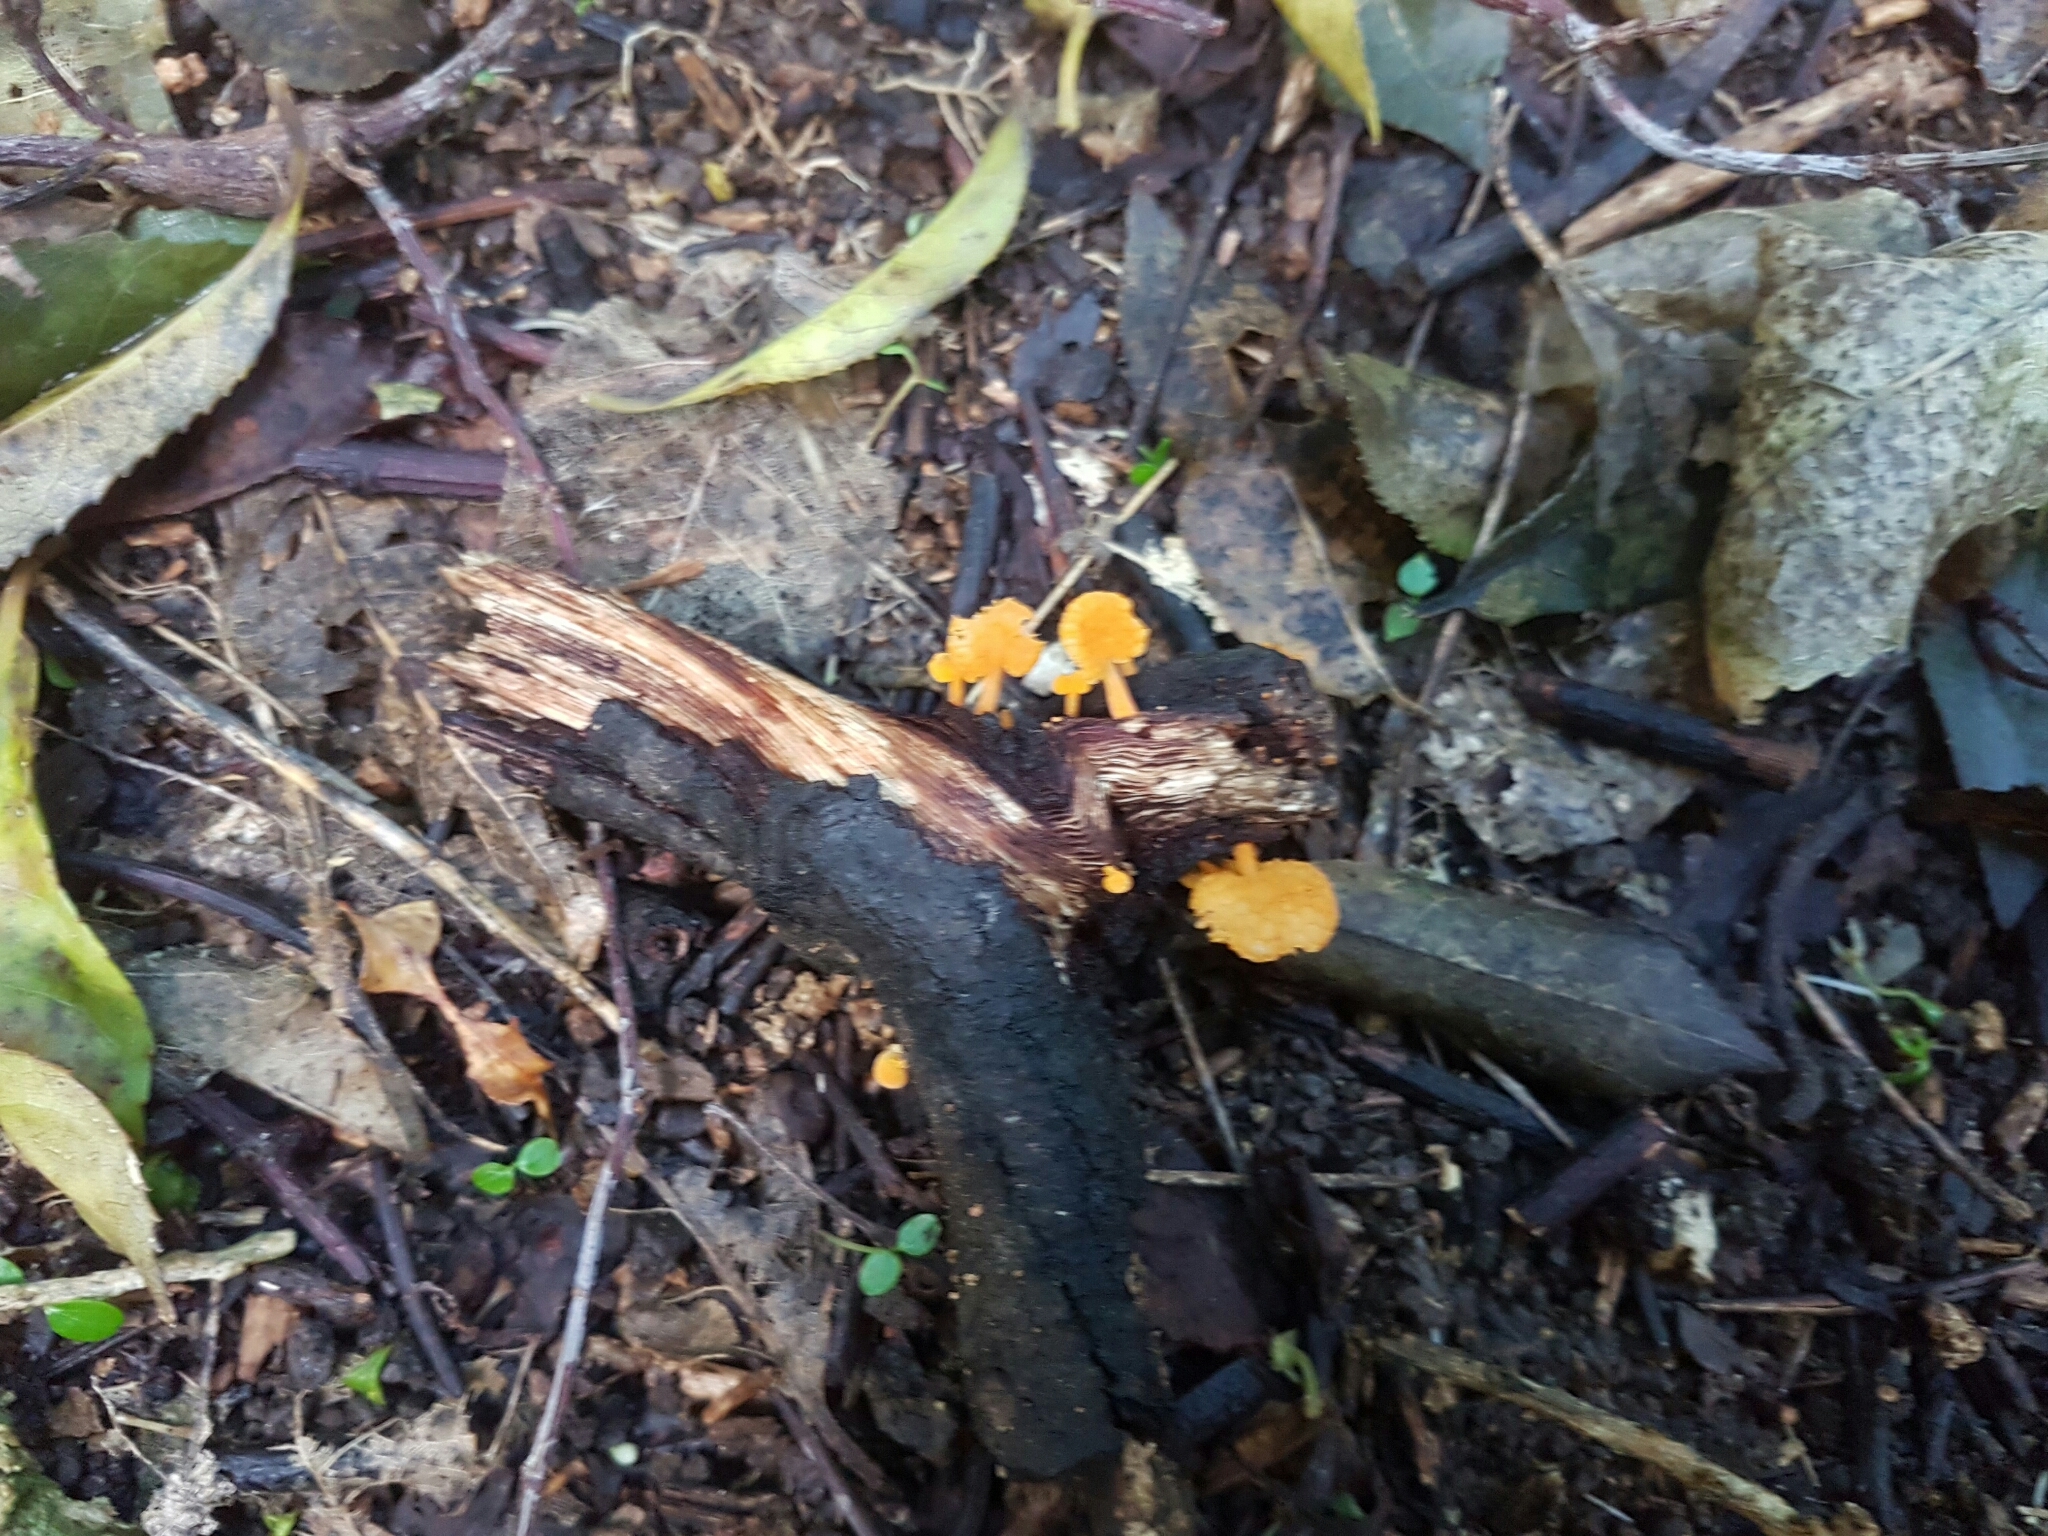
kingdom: Fungi
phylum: Basidiomycota
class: Agaricomycetes
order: Agaricales
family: Mycenaceae
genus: Favolaschia
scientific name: Favolaschia claudopus
